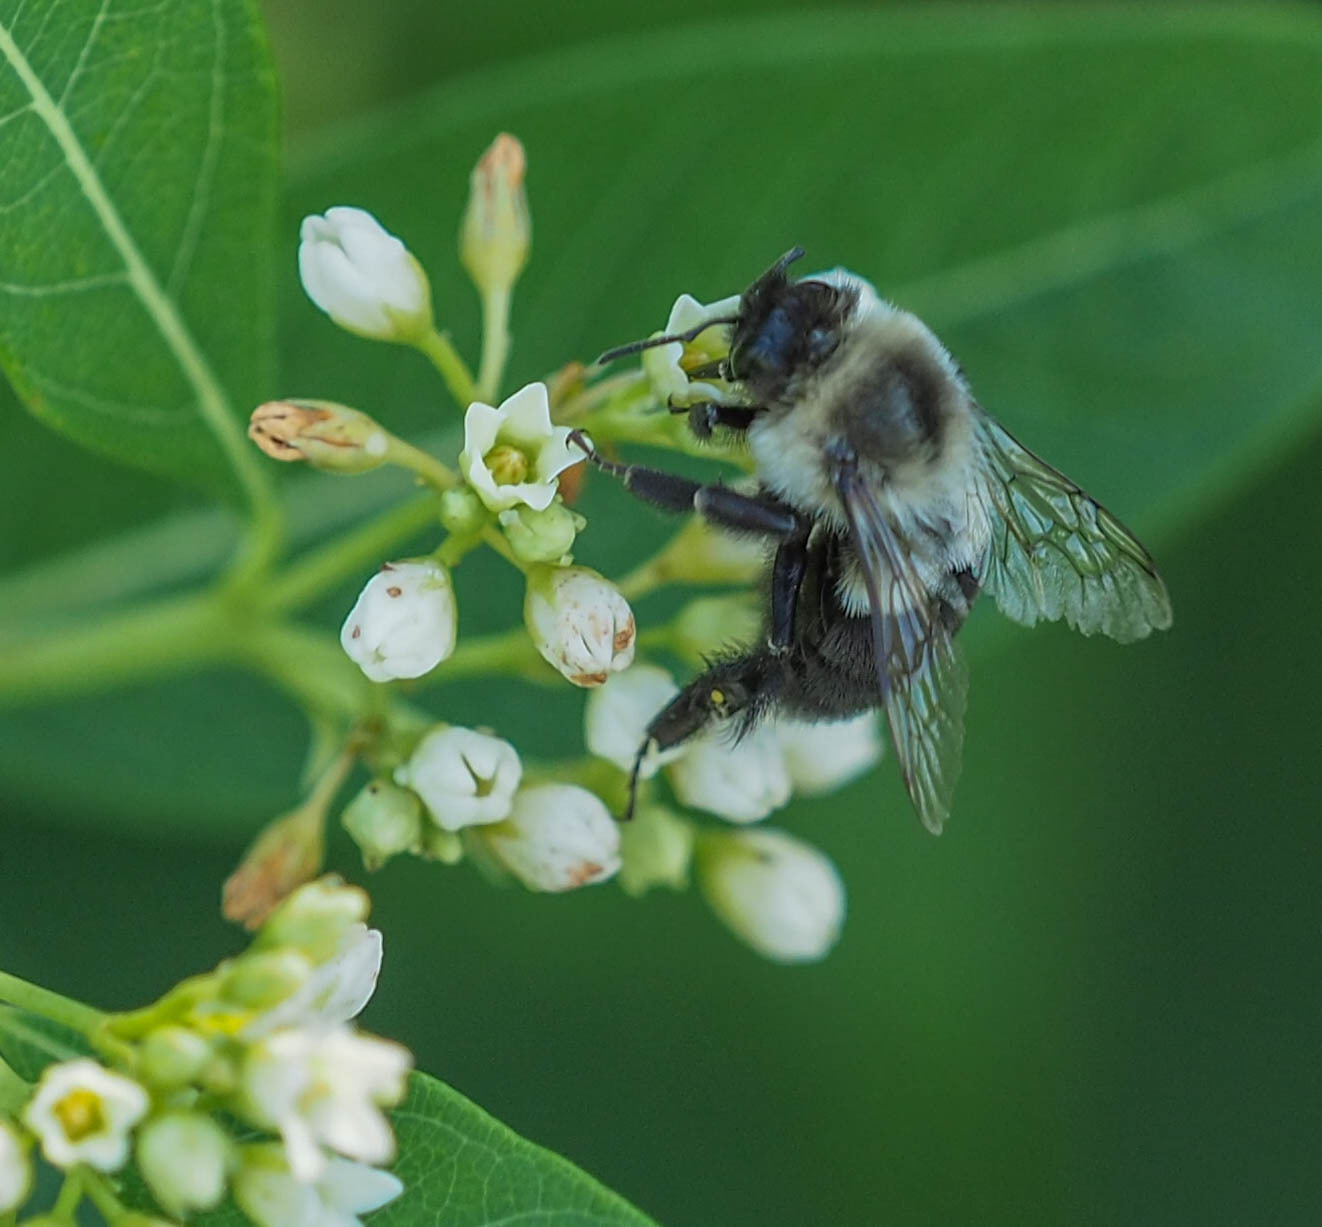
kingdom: Animalia
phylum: Arthropoda
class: Insecta
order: Hymenoptera
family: Apidae
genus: Bombus
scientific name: Bombus impatiens
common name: Common eastern bumble bee
